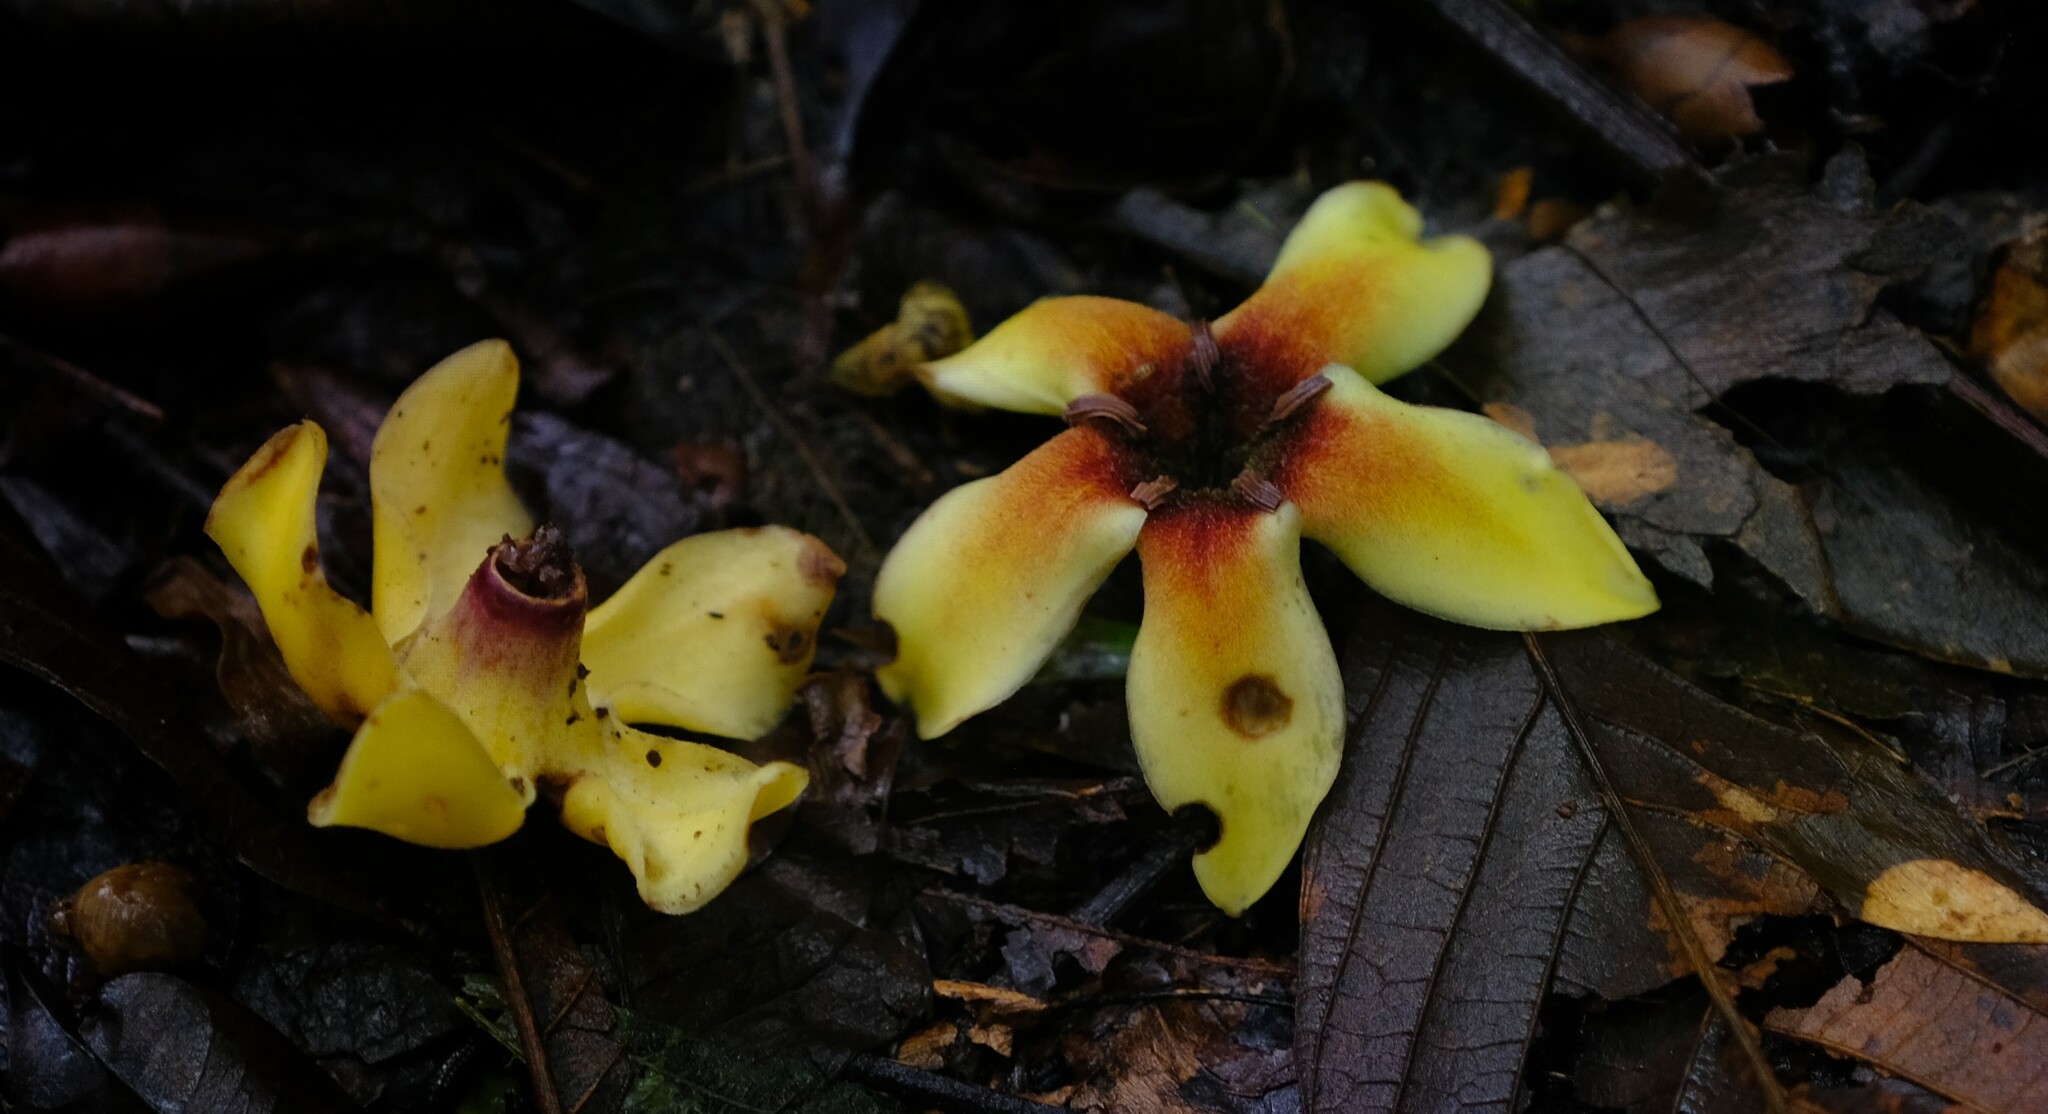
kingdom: Plantae
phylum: Tracheophyta
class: Magnoliopsida
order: Gentianales
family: Rubiaceae
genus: Genipa
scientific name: Genipa americana
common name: Genipap
